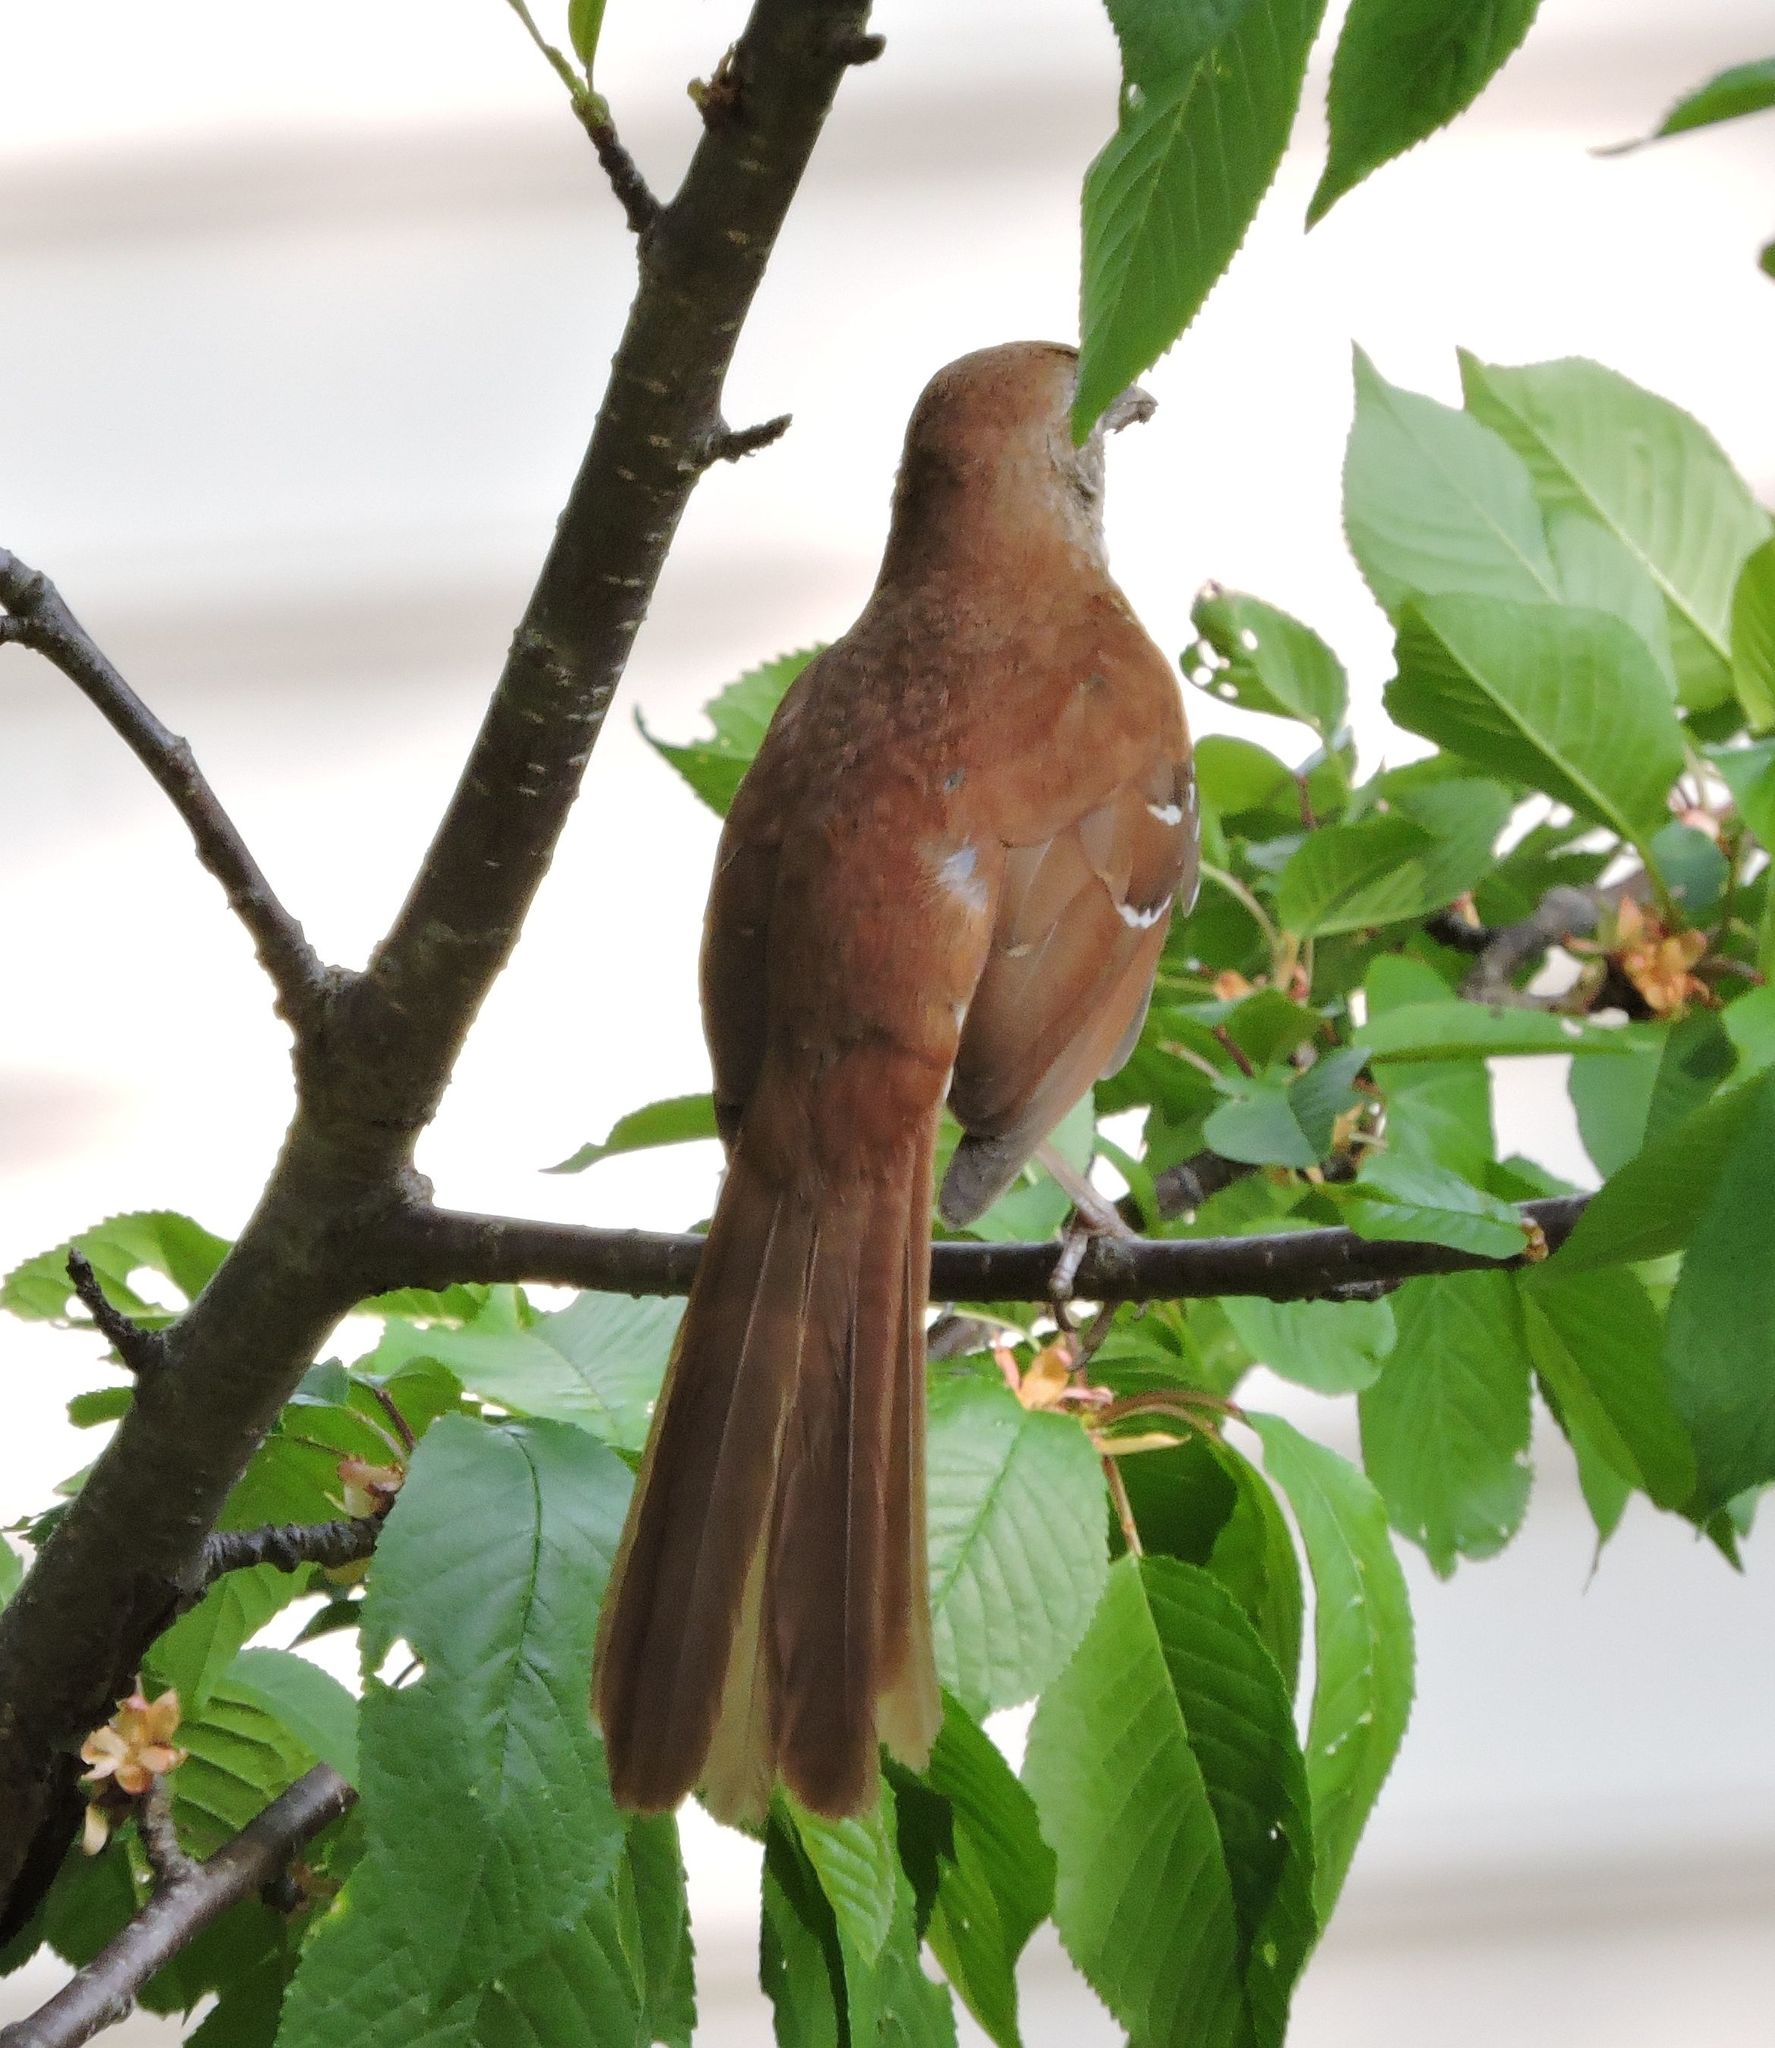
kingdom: Animalia
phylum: Chordata
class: Aves
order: Passeriformes
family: Mimidae
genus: Toxostoma
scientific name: Toxostoma rufum
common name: Brown thrasher
